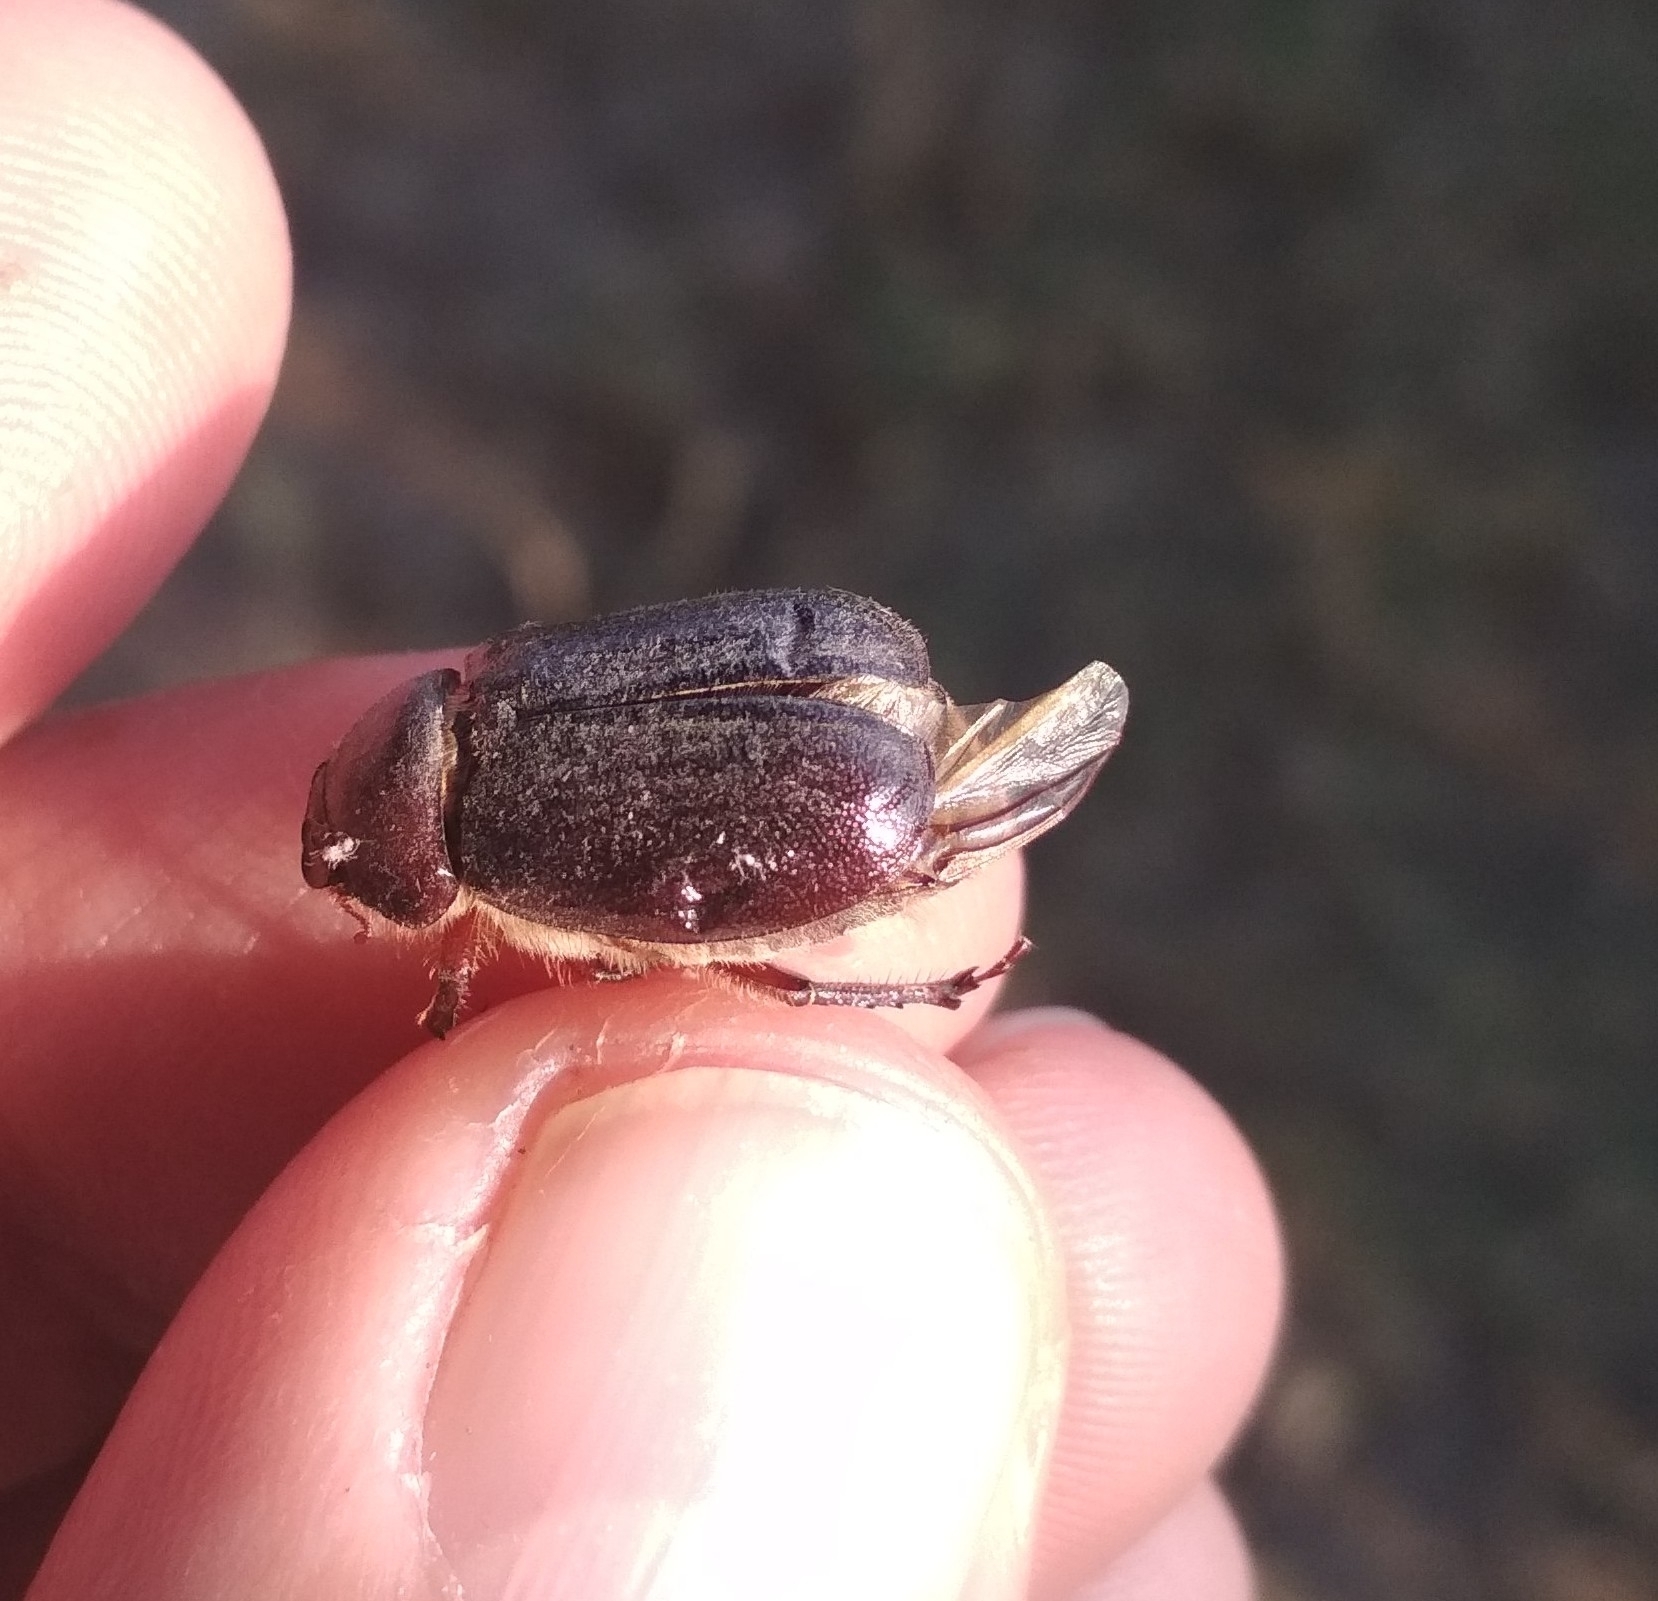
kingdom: Animalia
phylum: Arthropoda
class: Insecta
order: Coleoptera
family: Scarabaeidae
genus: Aplidia
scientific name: Aplidia transversa
